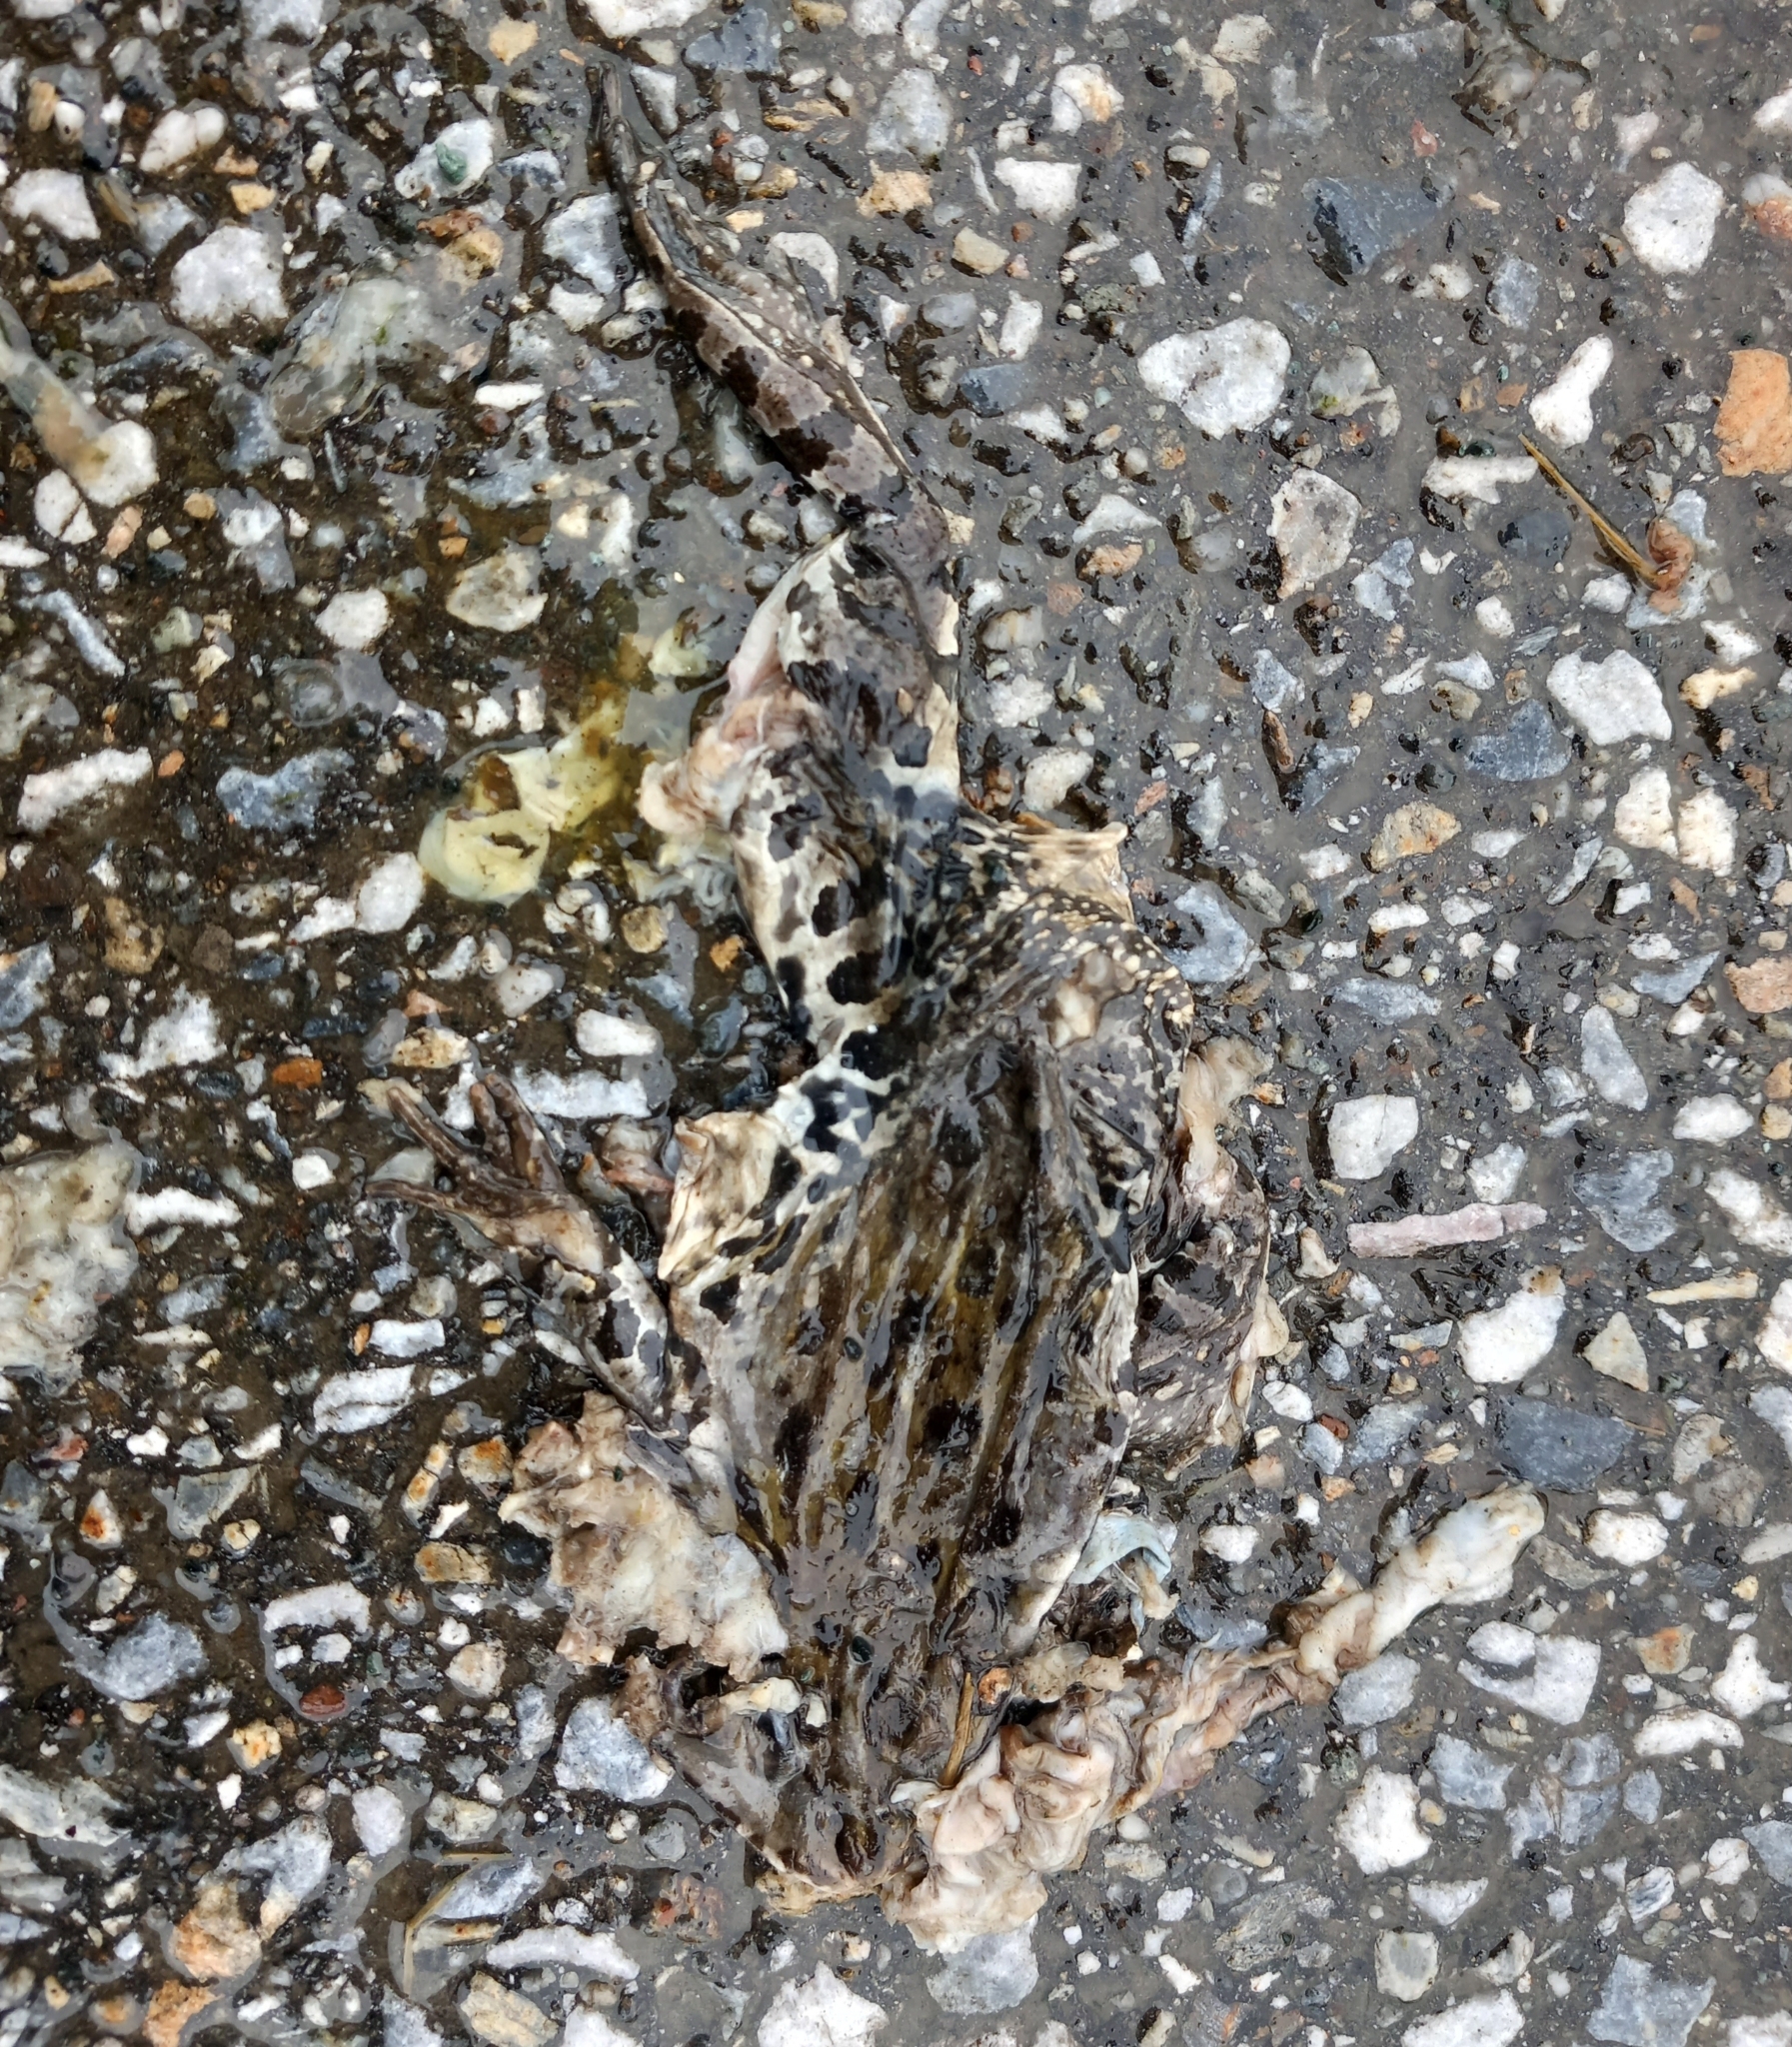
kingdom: Animalia
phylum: Chordata
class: Amphibia
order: Anura
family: Ranidae
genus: Pelophylax
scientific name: Pelophylax ridibundus
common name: Marsh frog
